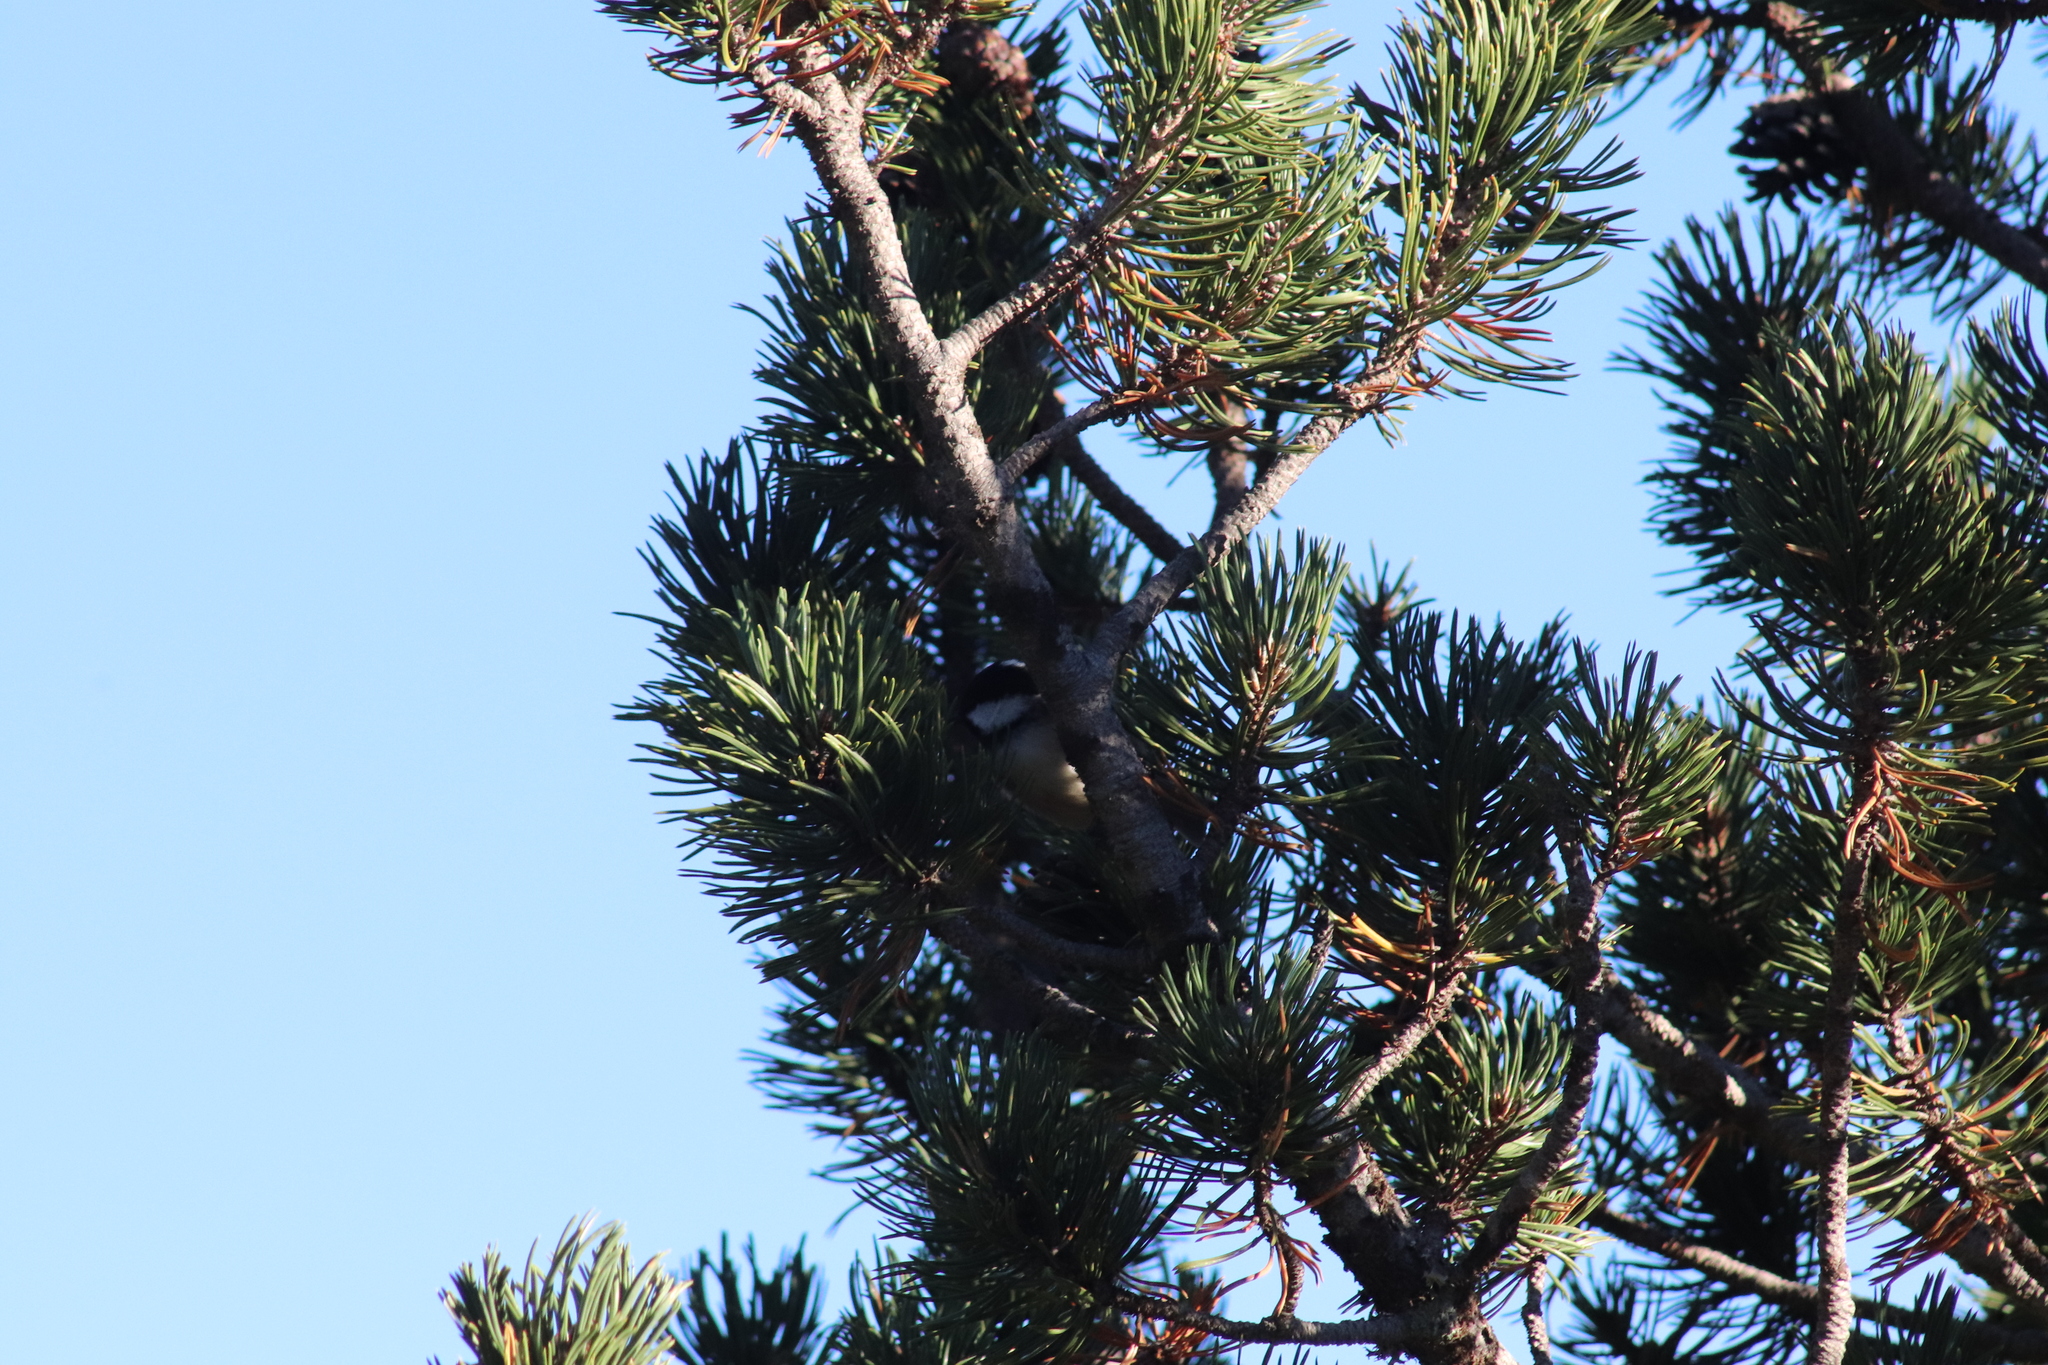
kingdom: Animalia
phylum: Chordata
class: Aves
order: Passeriformes
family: Paridae
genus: Periparus
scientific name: Periparus ater
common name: Coal tit
